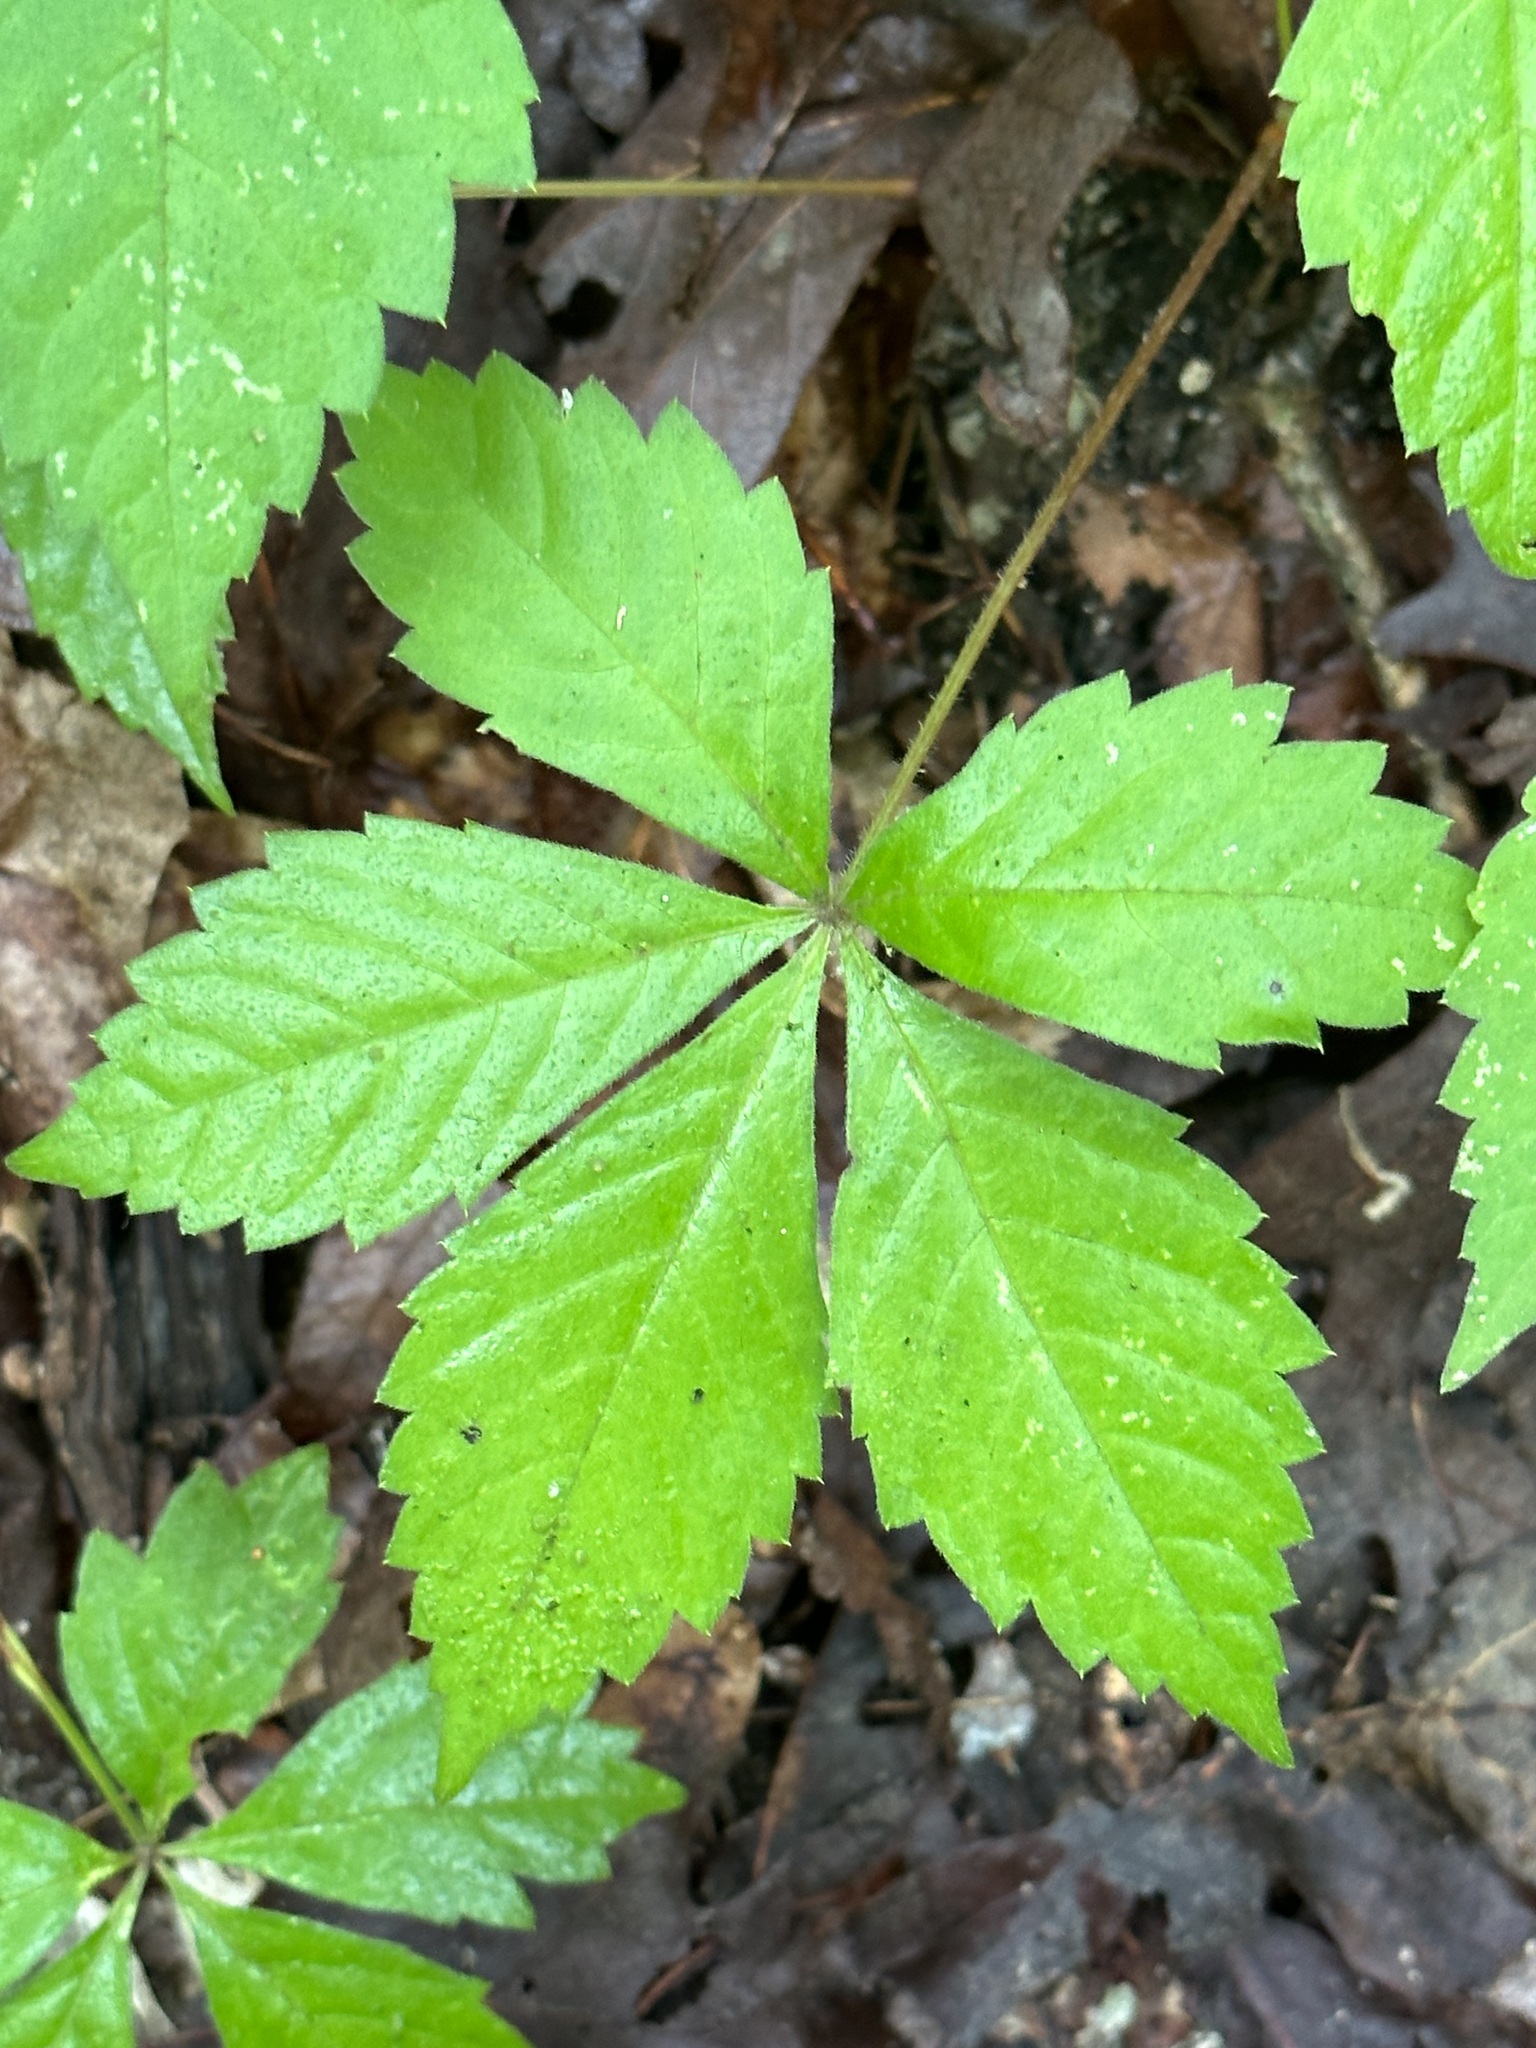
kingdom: Plantae
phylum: Tracheophyta
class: Magnoliopsida
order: Vitales
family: Vitaceae
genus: Parthenocissus
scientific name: Parthenocissus quinquefolia
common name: Virginia-creeper
